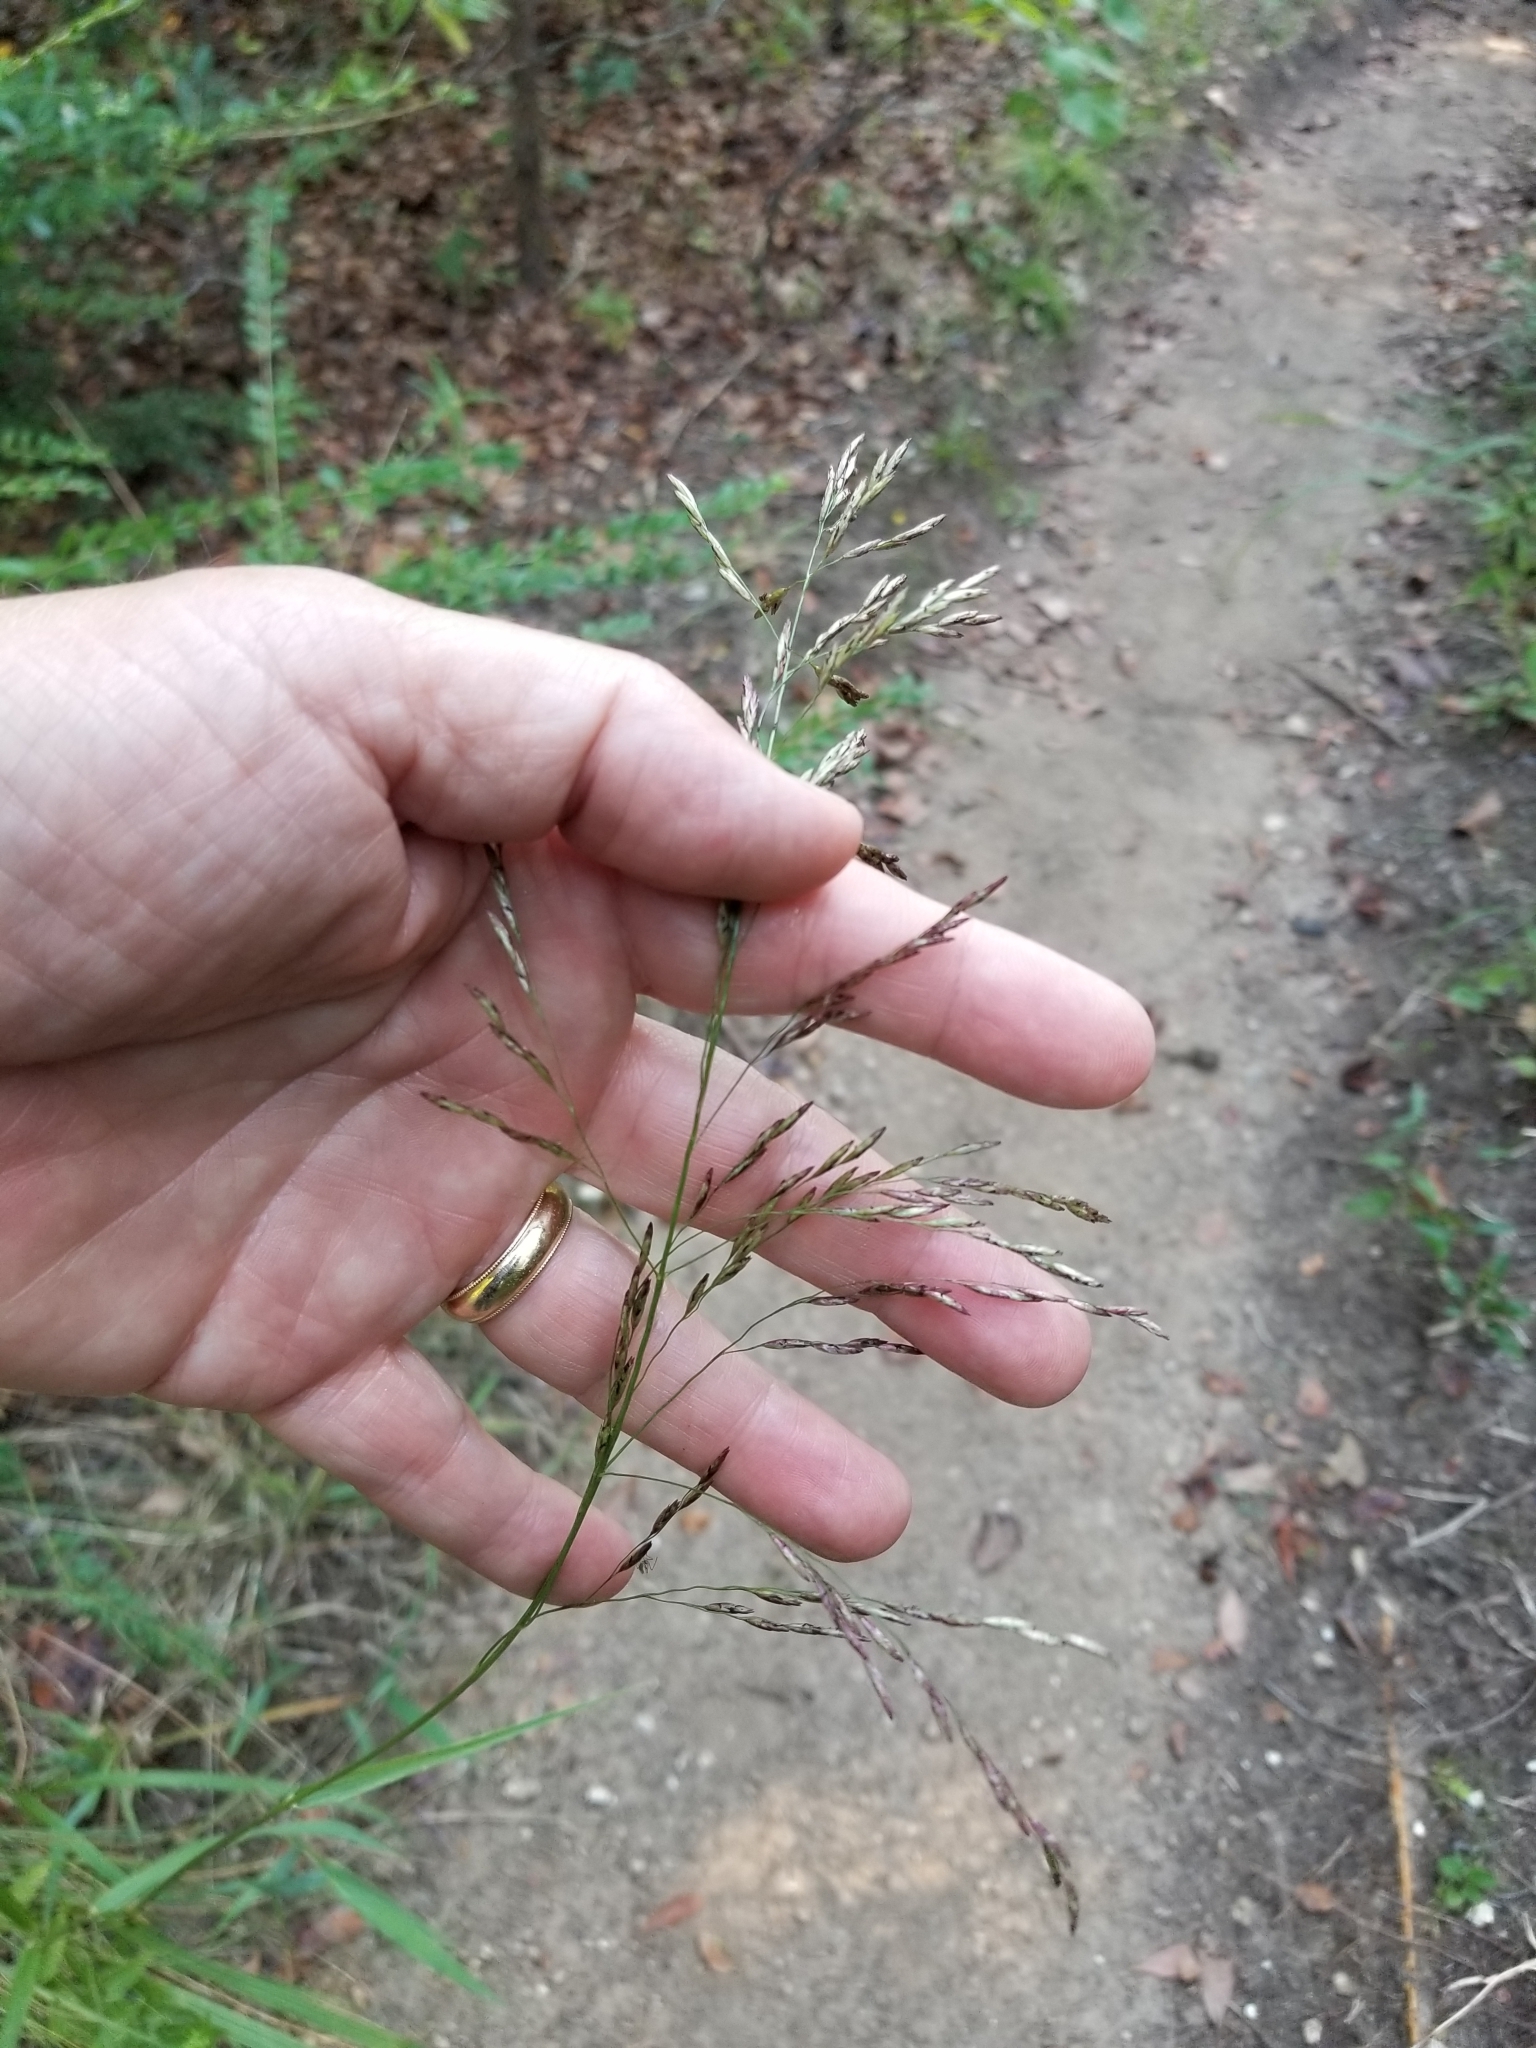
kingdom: Plantae
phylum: Tracheophyta
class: Liliopsida
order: Poales
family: Poaceae
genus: Tridens
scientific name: Tridens flavus
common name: Purpletop
